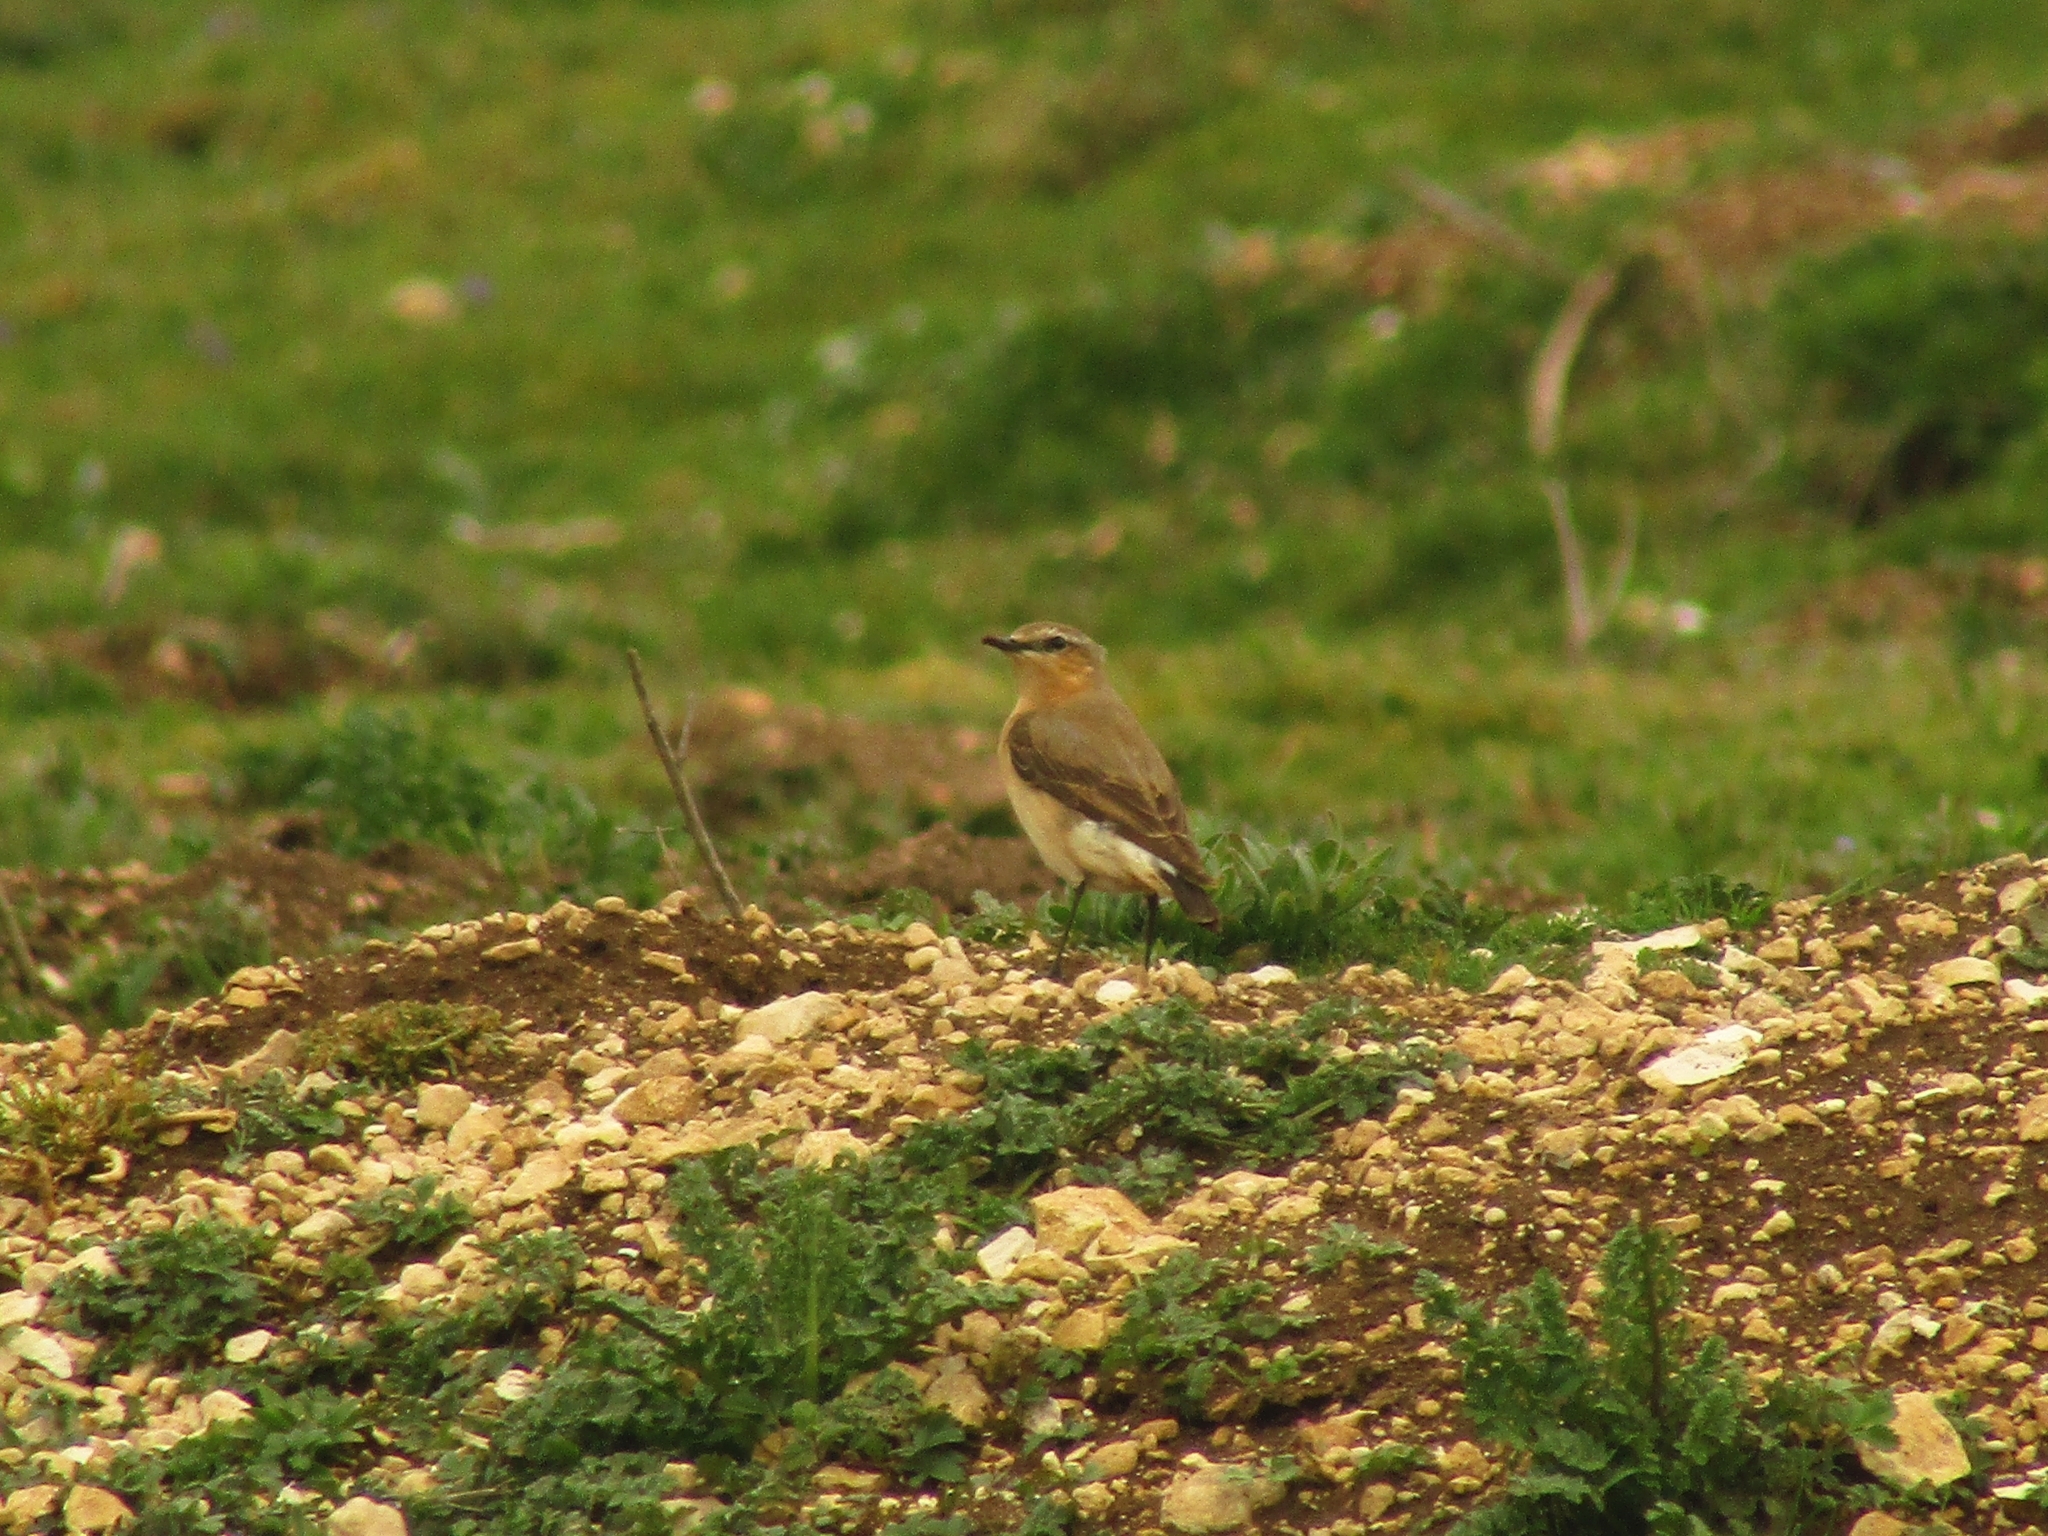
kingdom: Animalia
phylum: Chordata
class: Aves
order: Passeriformes
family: Muscicapidae
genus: Oenanthe
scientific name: Oenanthe oenanthe
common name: Northern wheatear
